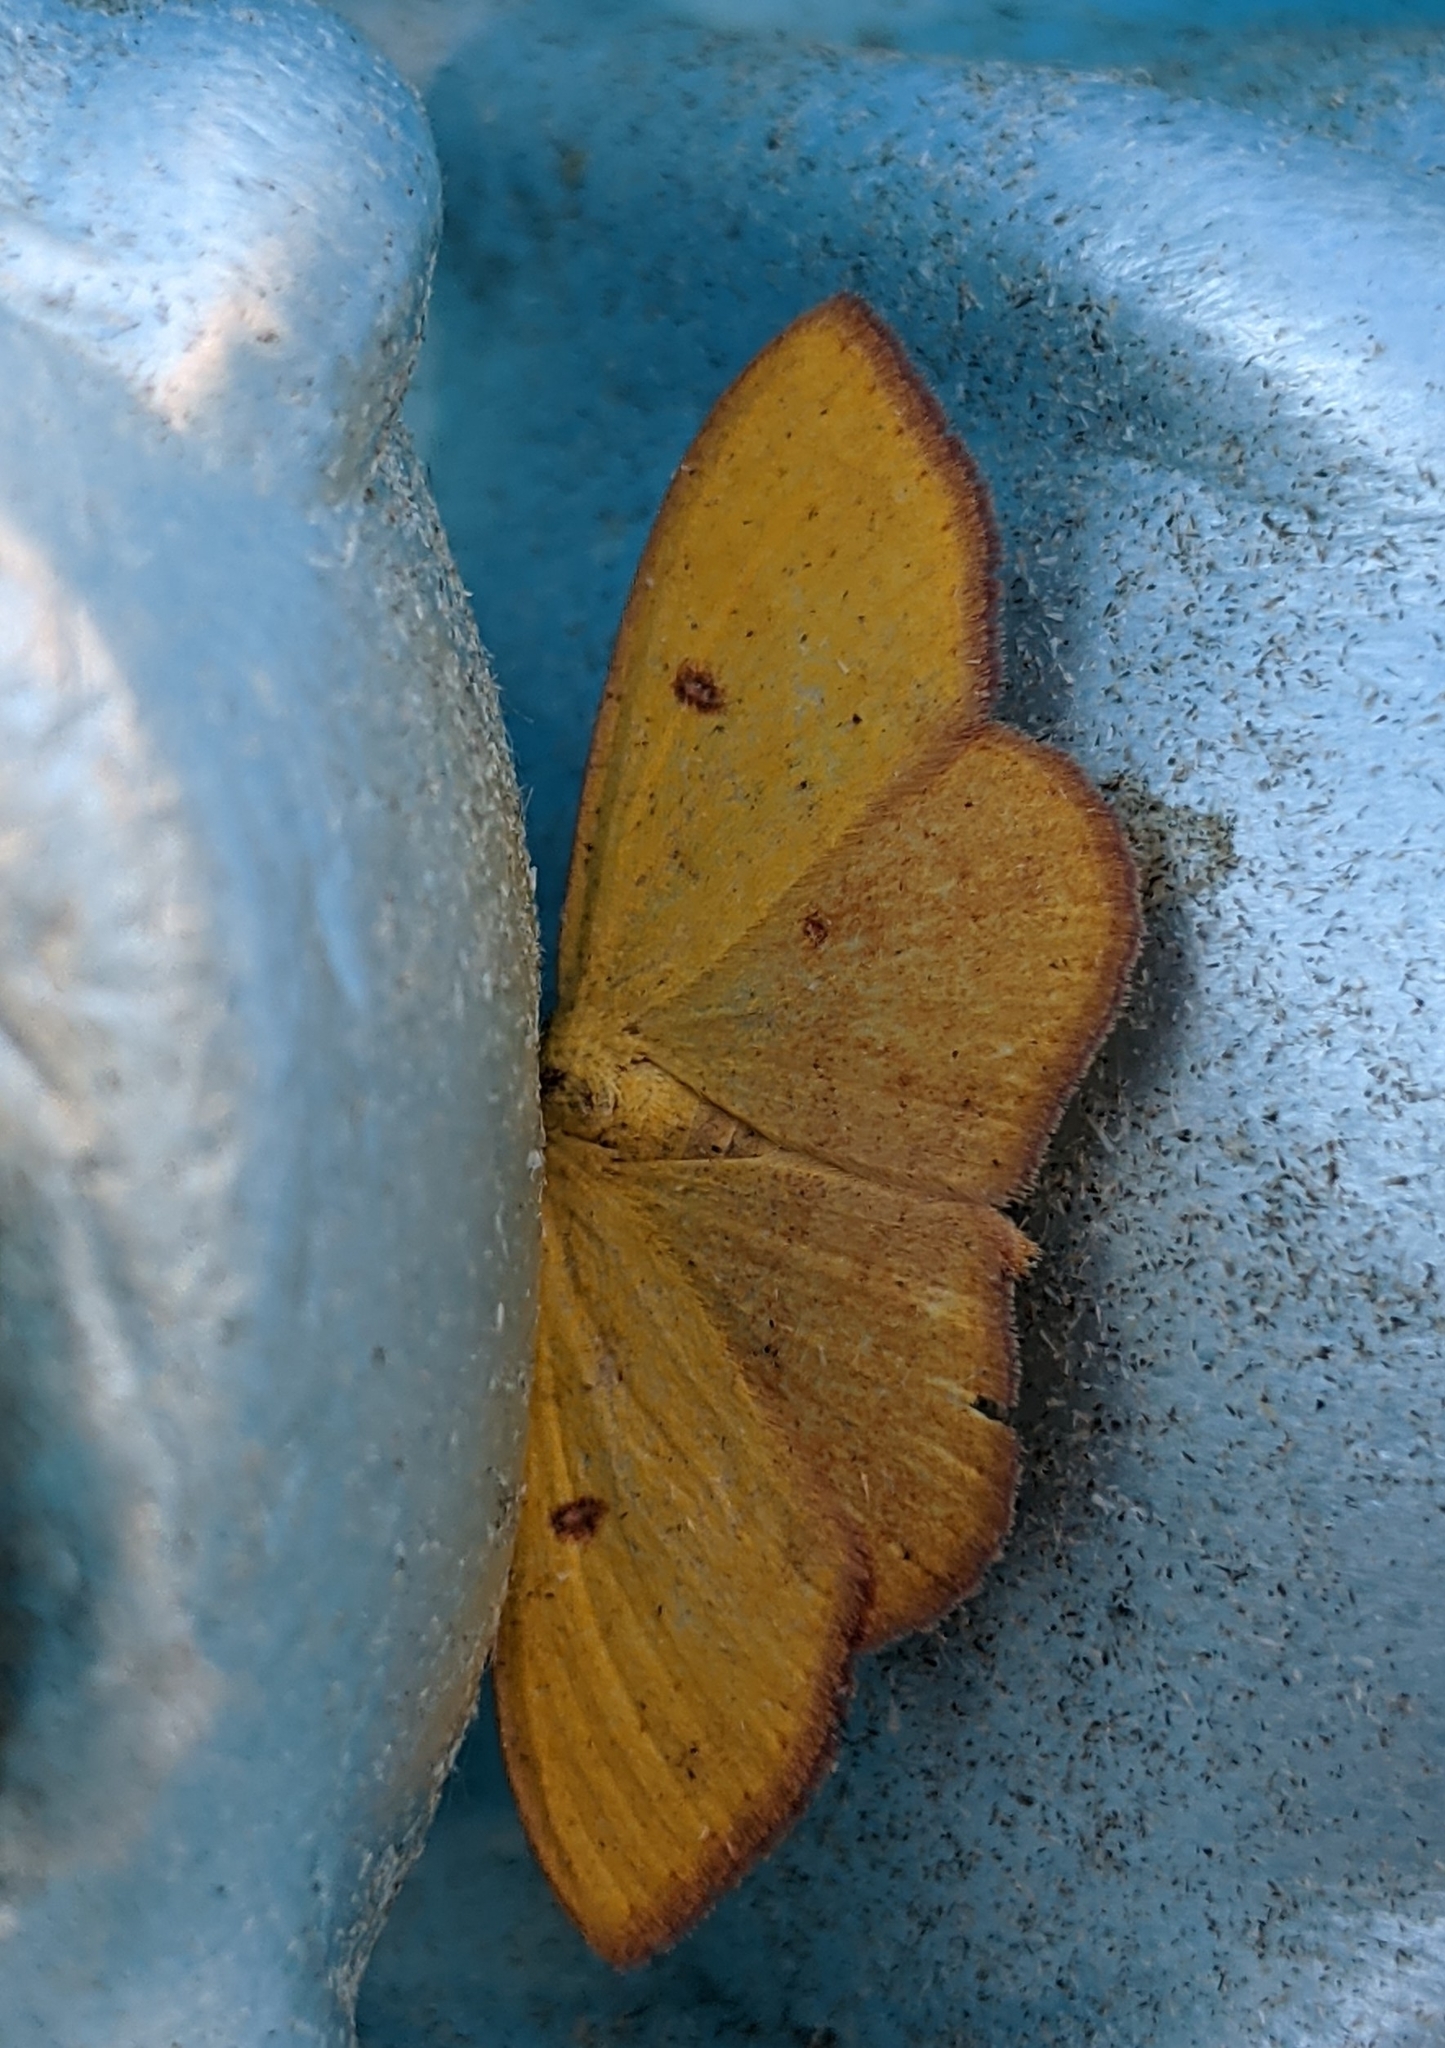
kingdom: Animalia
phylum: Arthropoda
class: Insecta
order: Lepidoptera
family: Geometridae
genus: Semaeopus
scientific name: Semaeopus ella
